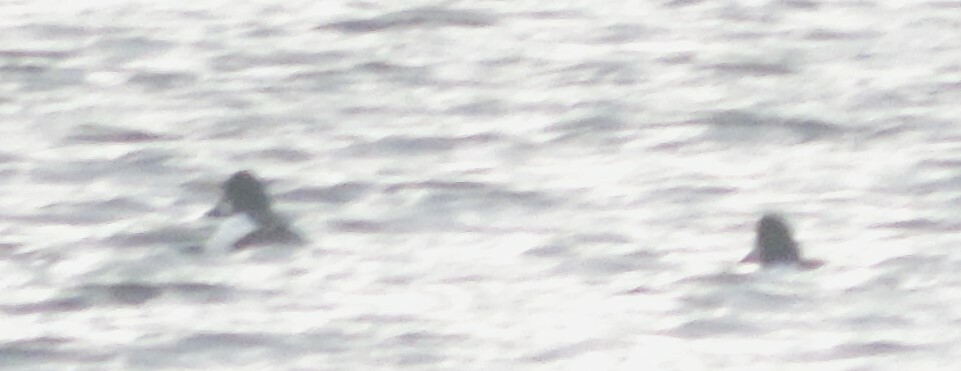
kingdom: Animalia
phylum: Chordata
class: Aves
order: Anseriformes
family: Anatidae
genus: Bucephala
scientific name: Bucephala clangula
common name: Common goldeneye
